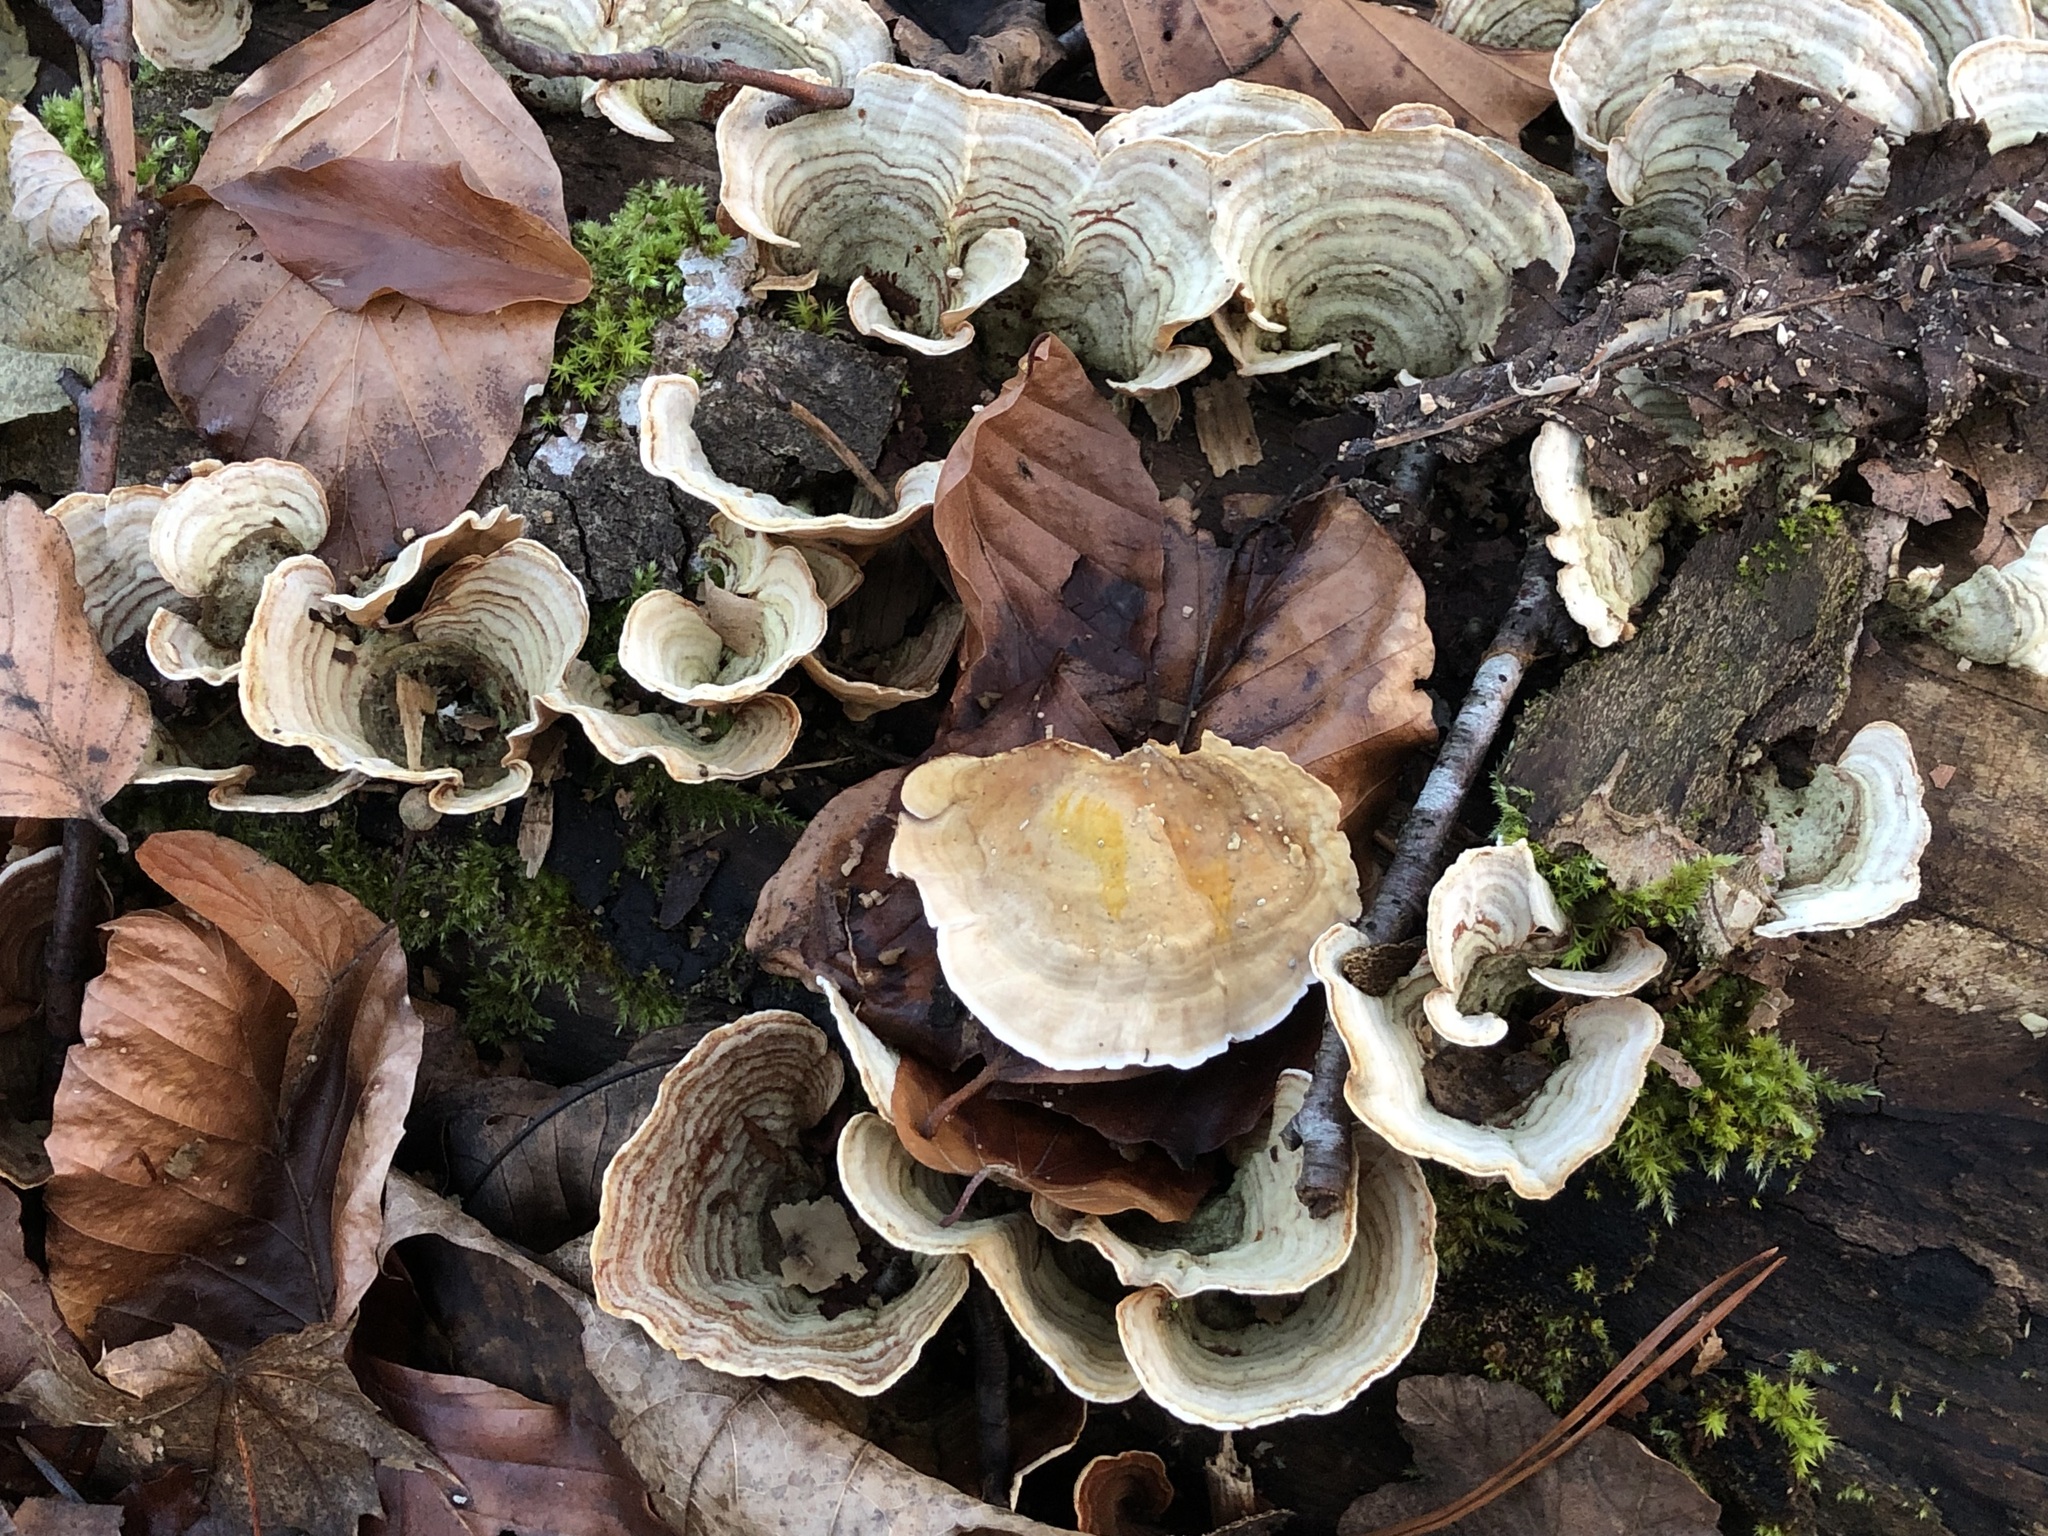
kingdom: Fungi
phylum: Basidiomycota
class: Agaricomycetes
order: Russulales
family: Stereaceae
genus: Stereum
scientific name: Stereum subtomentosum
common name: Yellowing curtain crust
